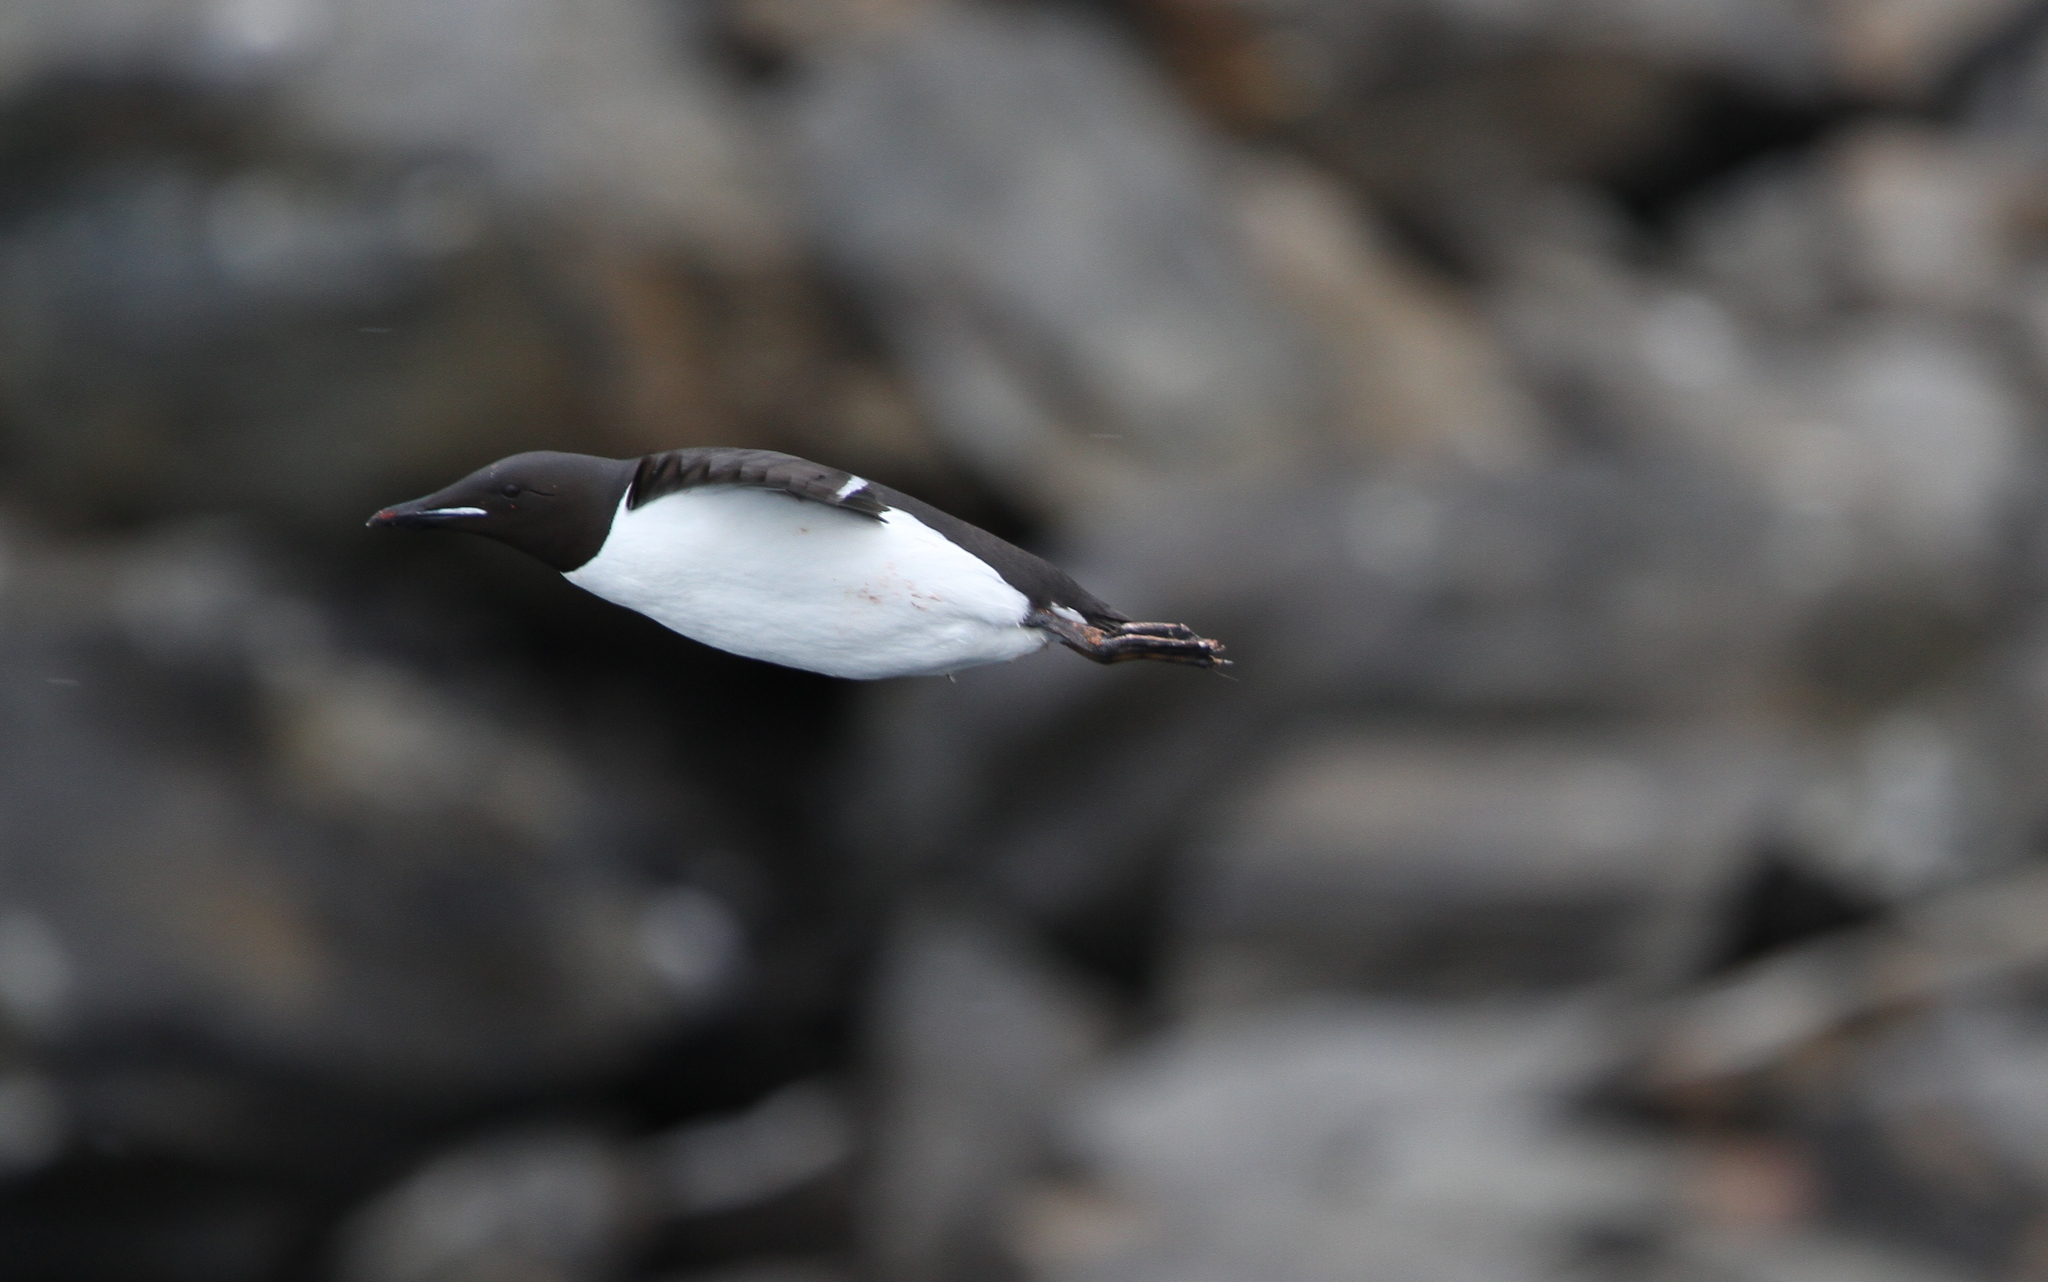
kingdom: Animalia
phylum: Chordata
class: Aves
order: Charadriiformes
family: Alcidae
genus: Uria
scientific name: Uria lomvia
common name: Thick-billed murre
